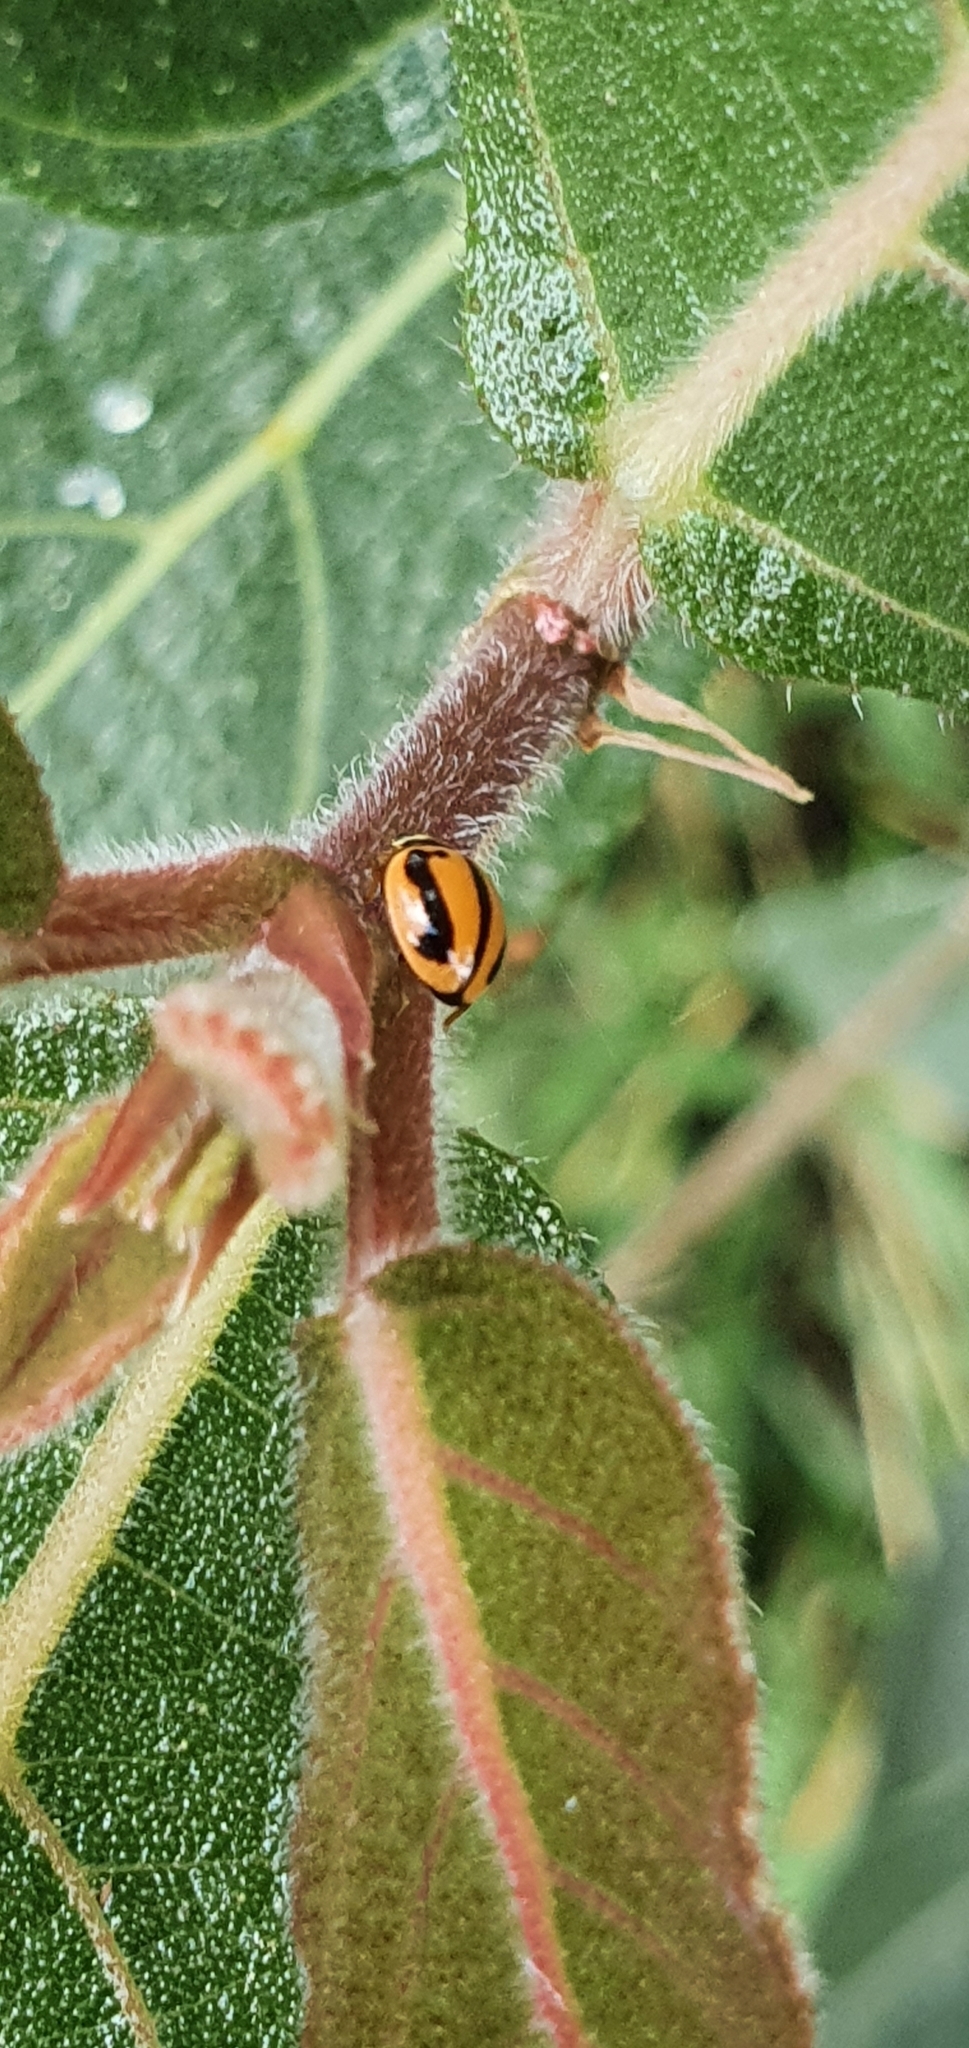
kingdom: Animalia
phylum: Arthropoda
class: Insecta
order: Coleoptera
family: Coccinellidae
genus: Micraspis
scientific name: Micraspis frenata
